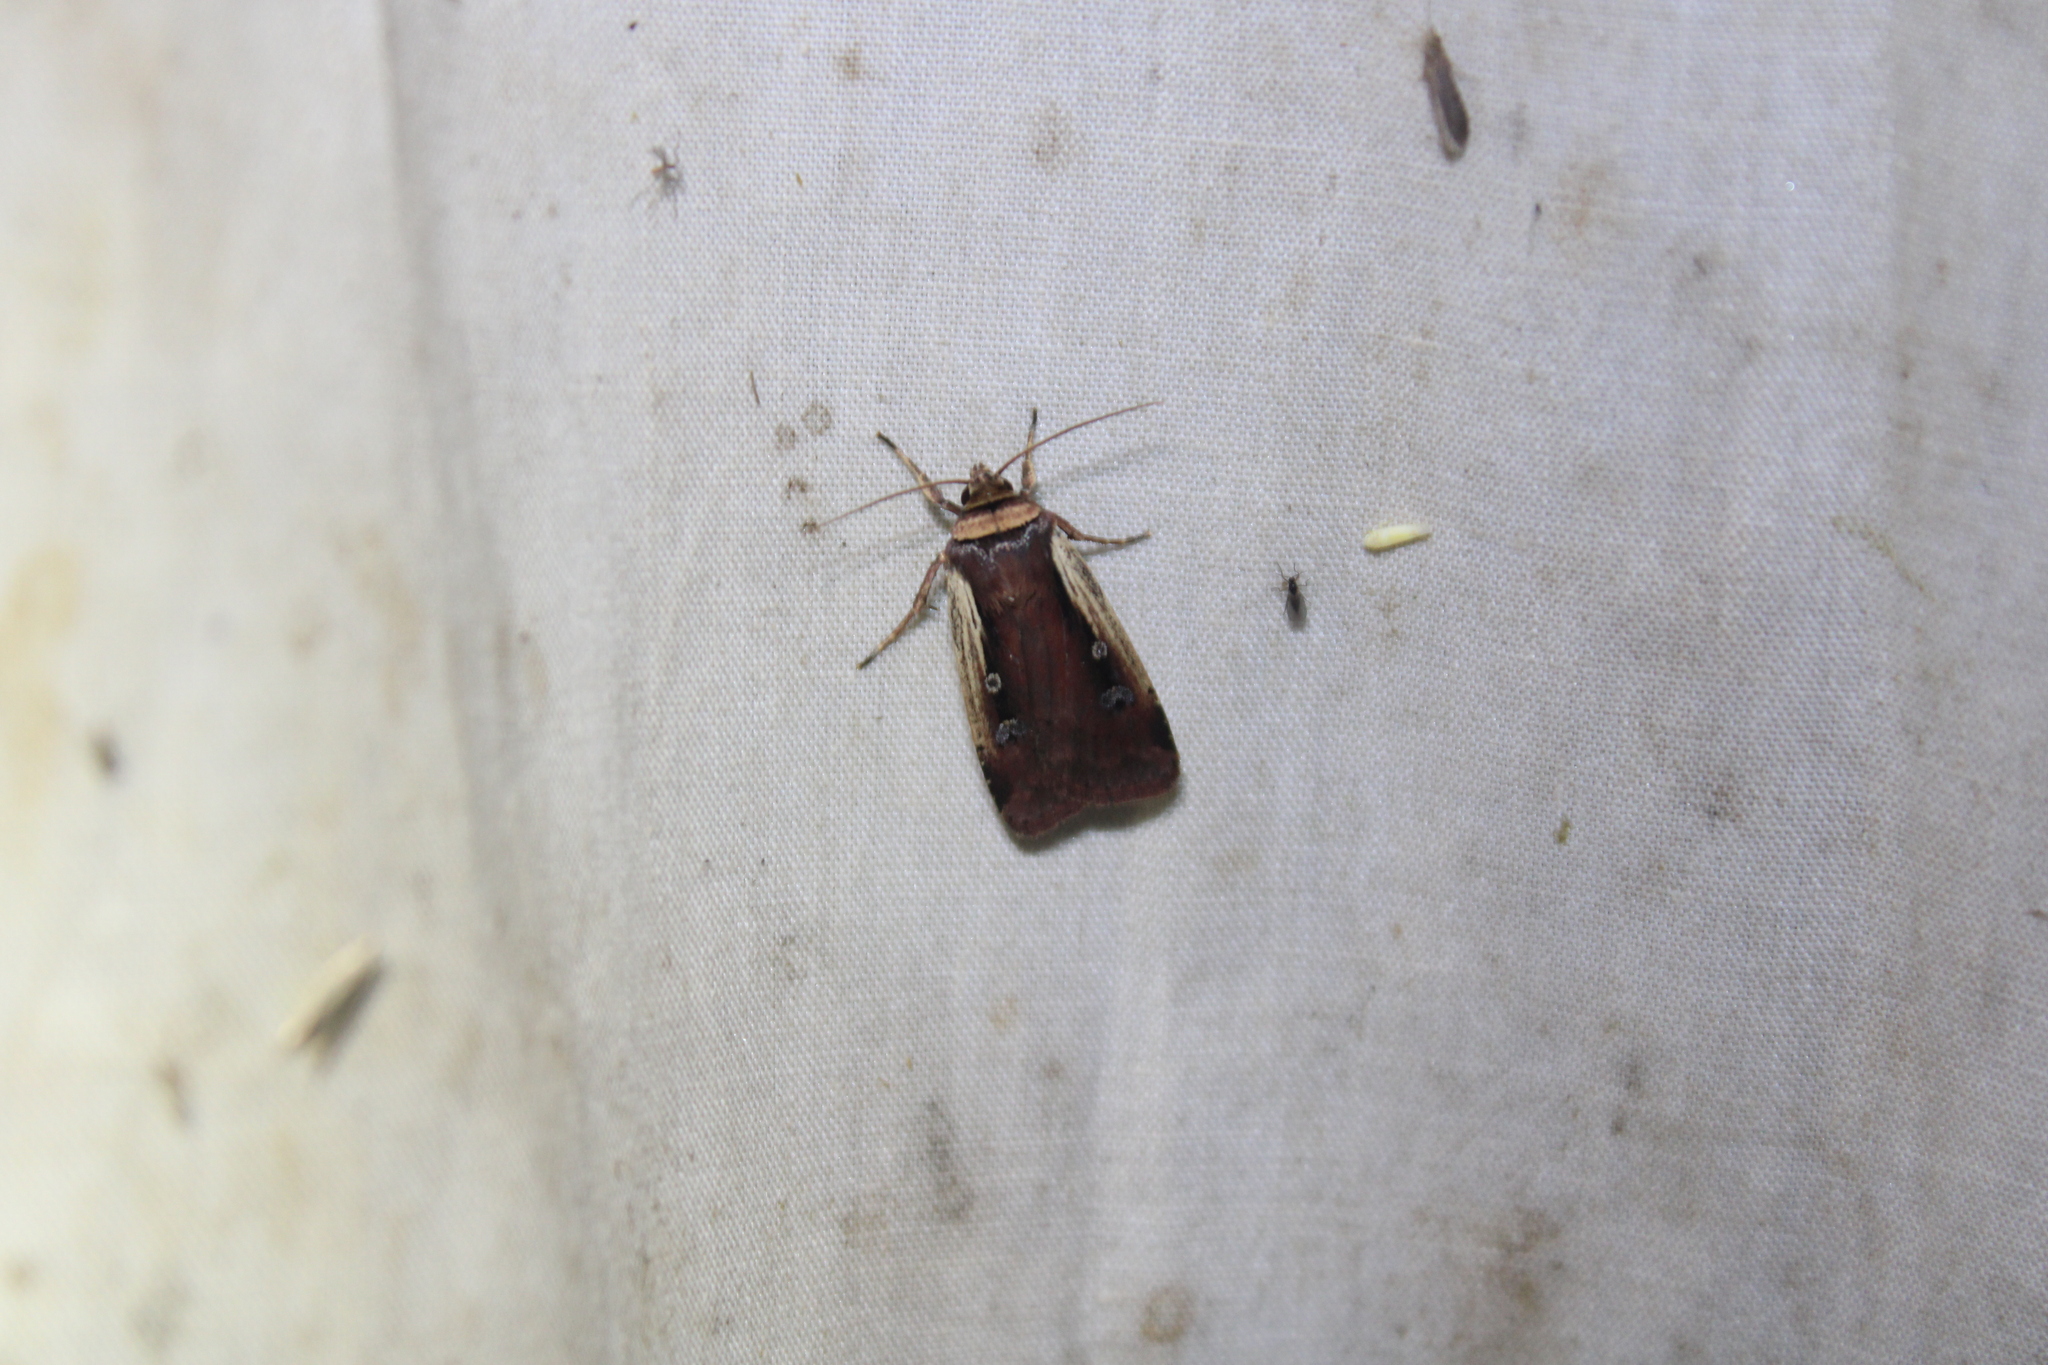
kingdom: Animalia
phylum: Arthropoda
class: Insecta
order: Lepidoptera
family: Noctuidae
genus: Ochropleura
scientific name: Ochropleura implecta
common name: Flame-shouldered dart
